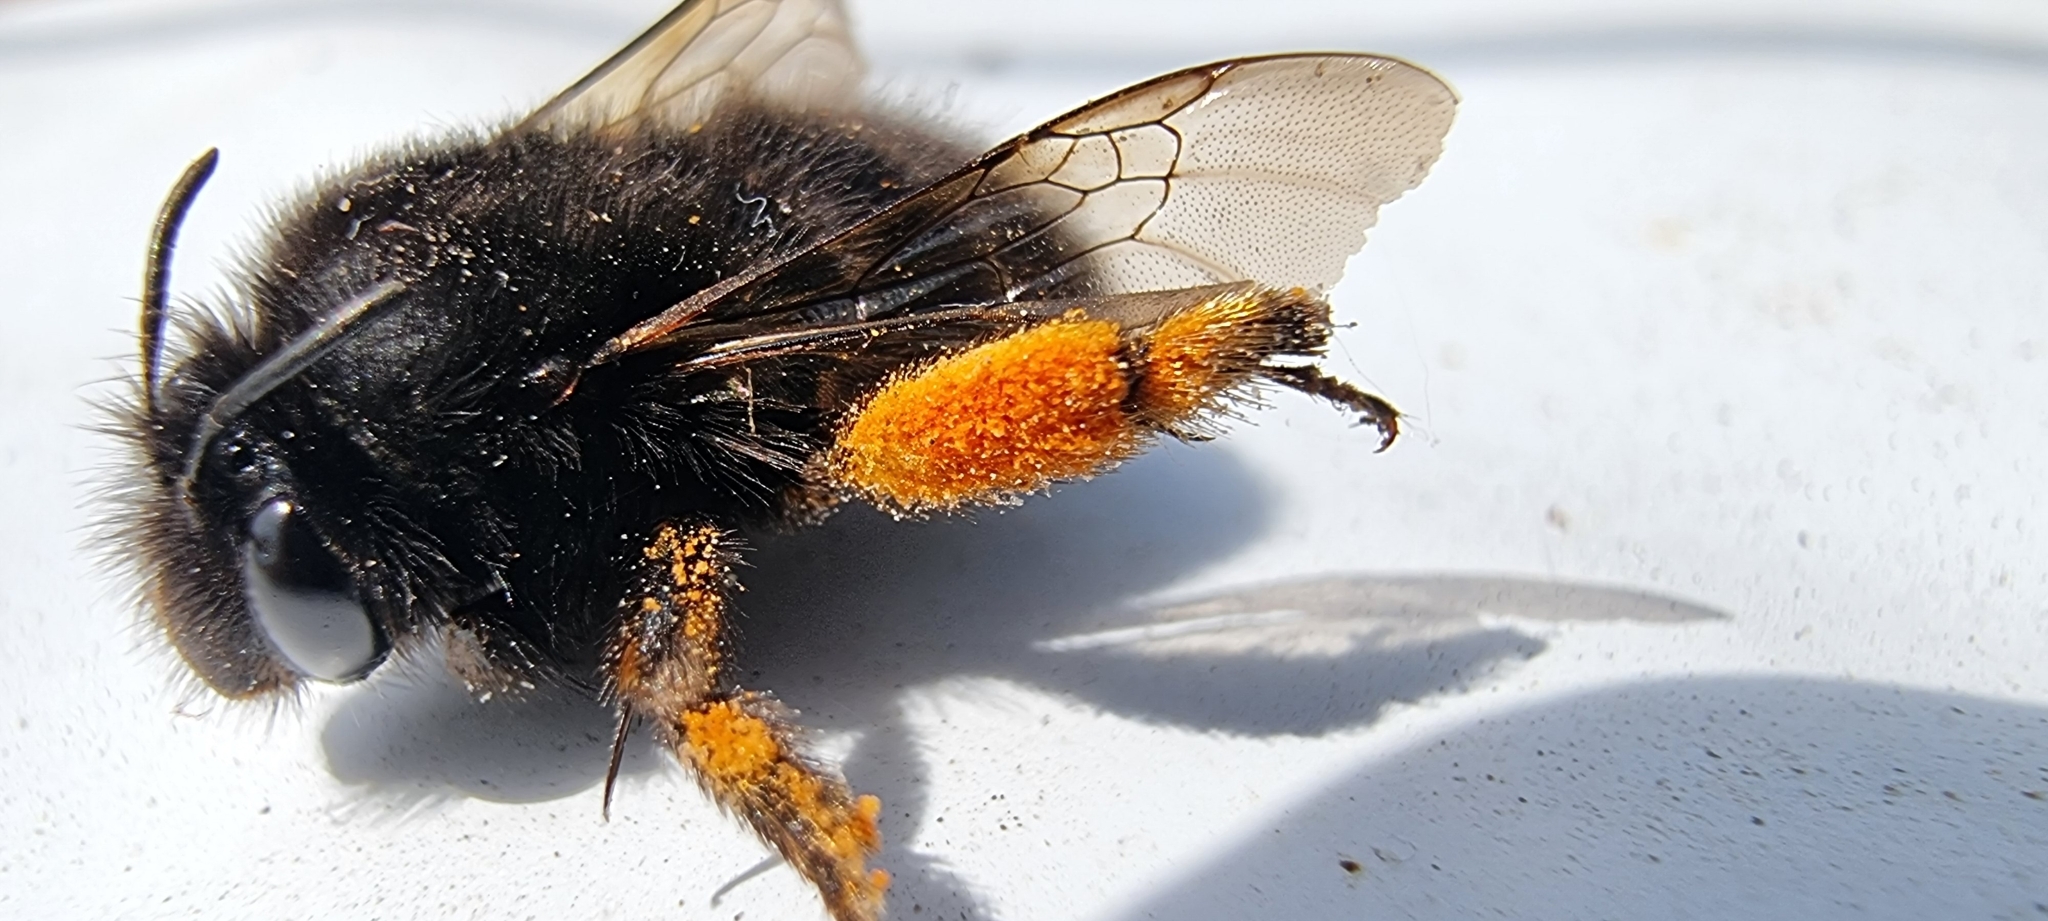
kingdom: Animalia
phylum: Arthropoda
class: Insecta
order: Hymenoptera
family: Apidae
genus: Anthophora
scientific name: Anthophora plumipes
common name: Hairy-footed flower bee
